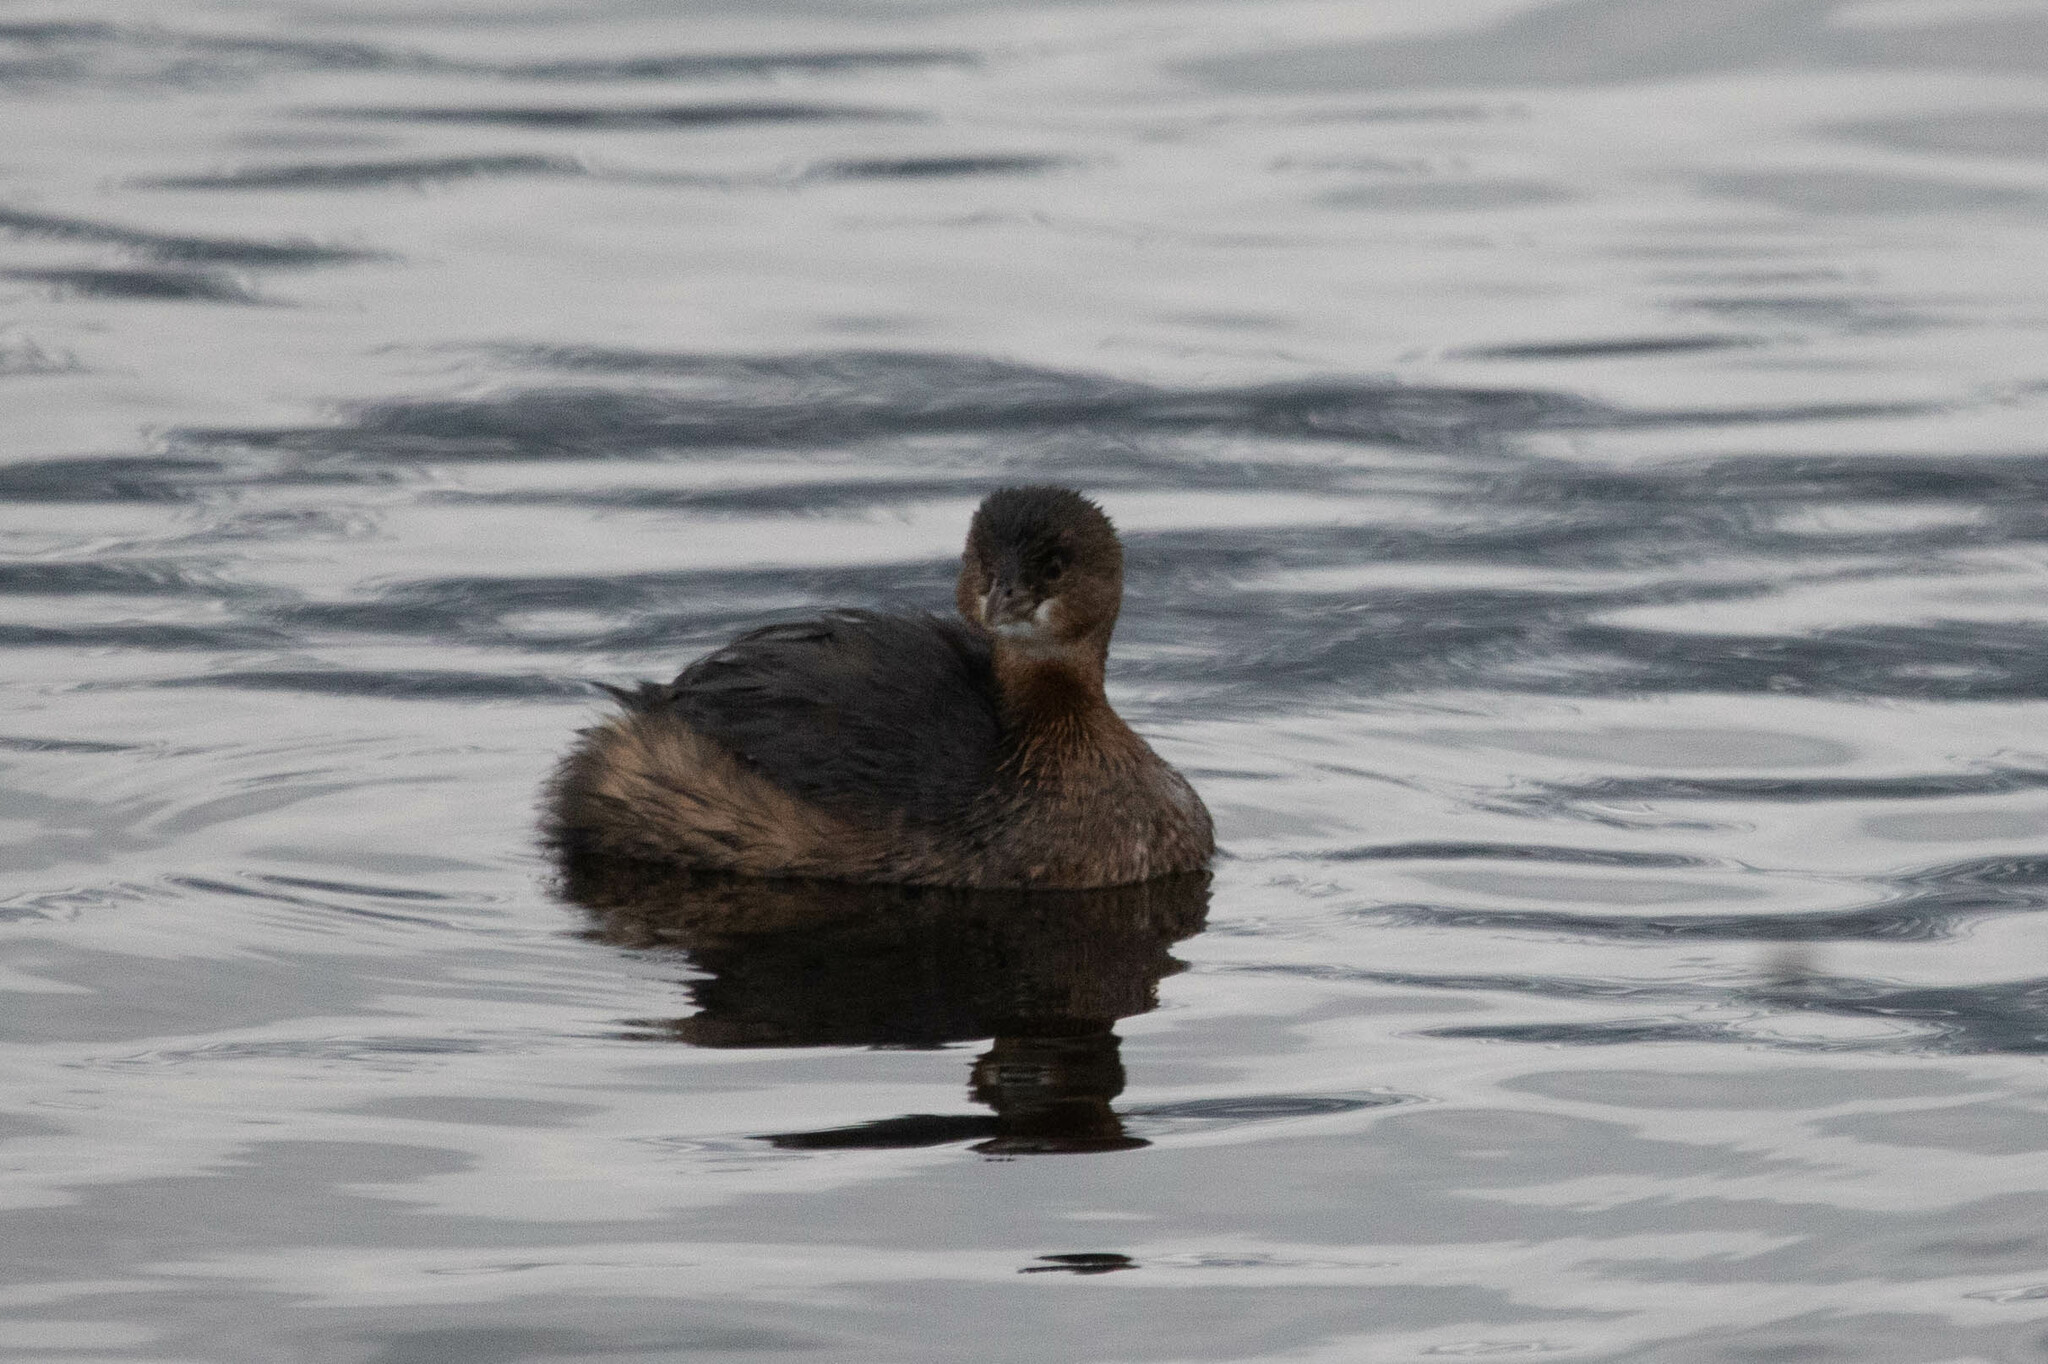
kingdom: Animalia
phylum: Chordata
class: Aves
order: Podicipediformes
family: Podicipedidae
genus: Podilymbus
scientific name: Podilymbus podiceps
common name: Pied-billed grebe
